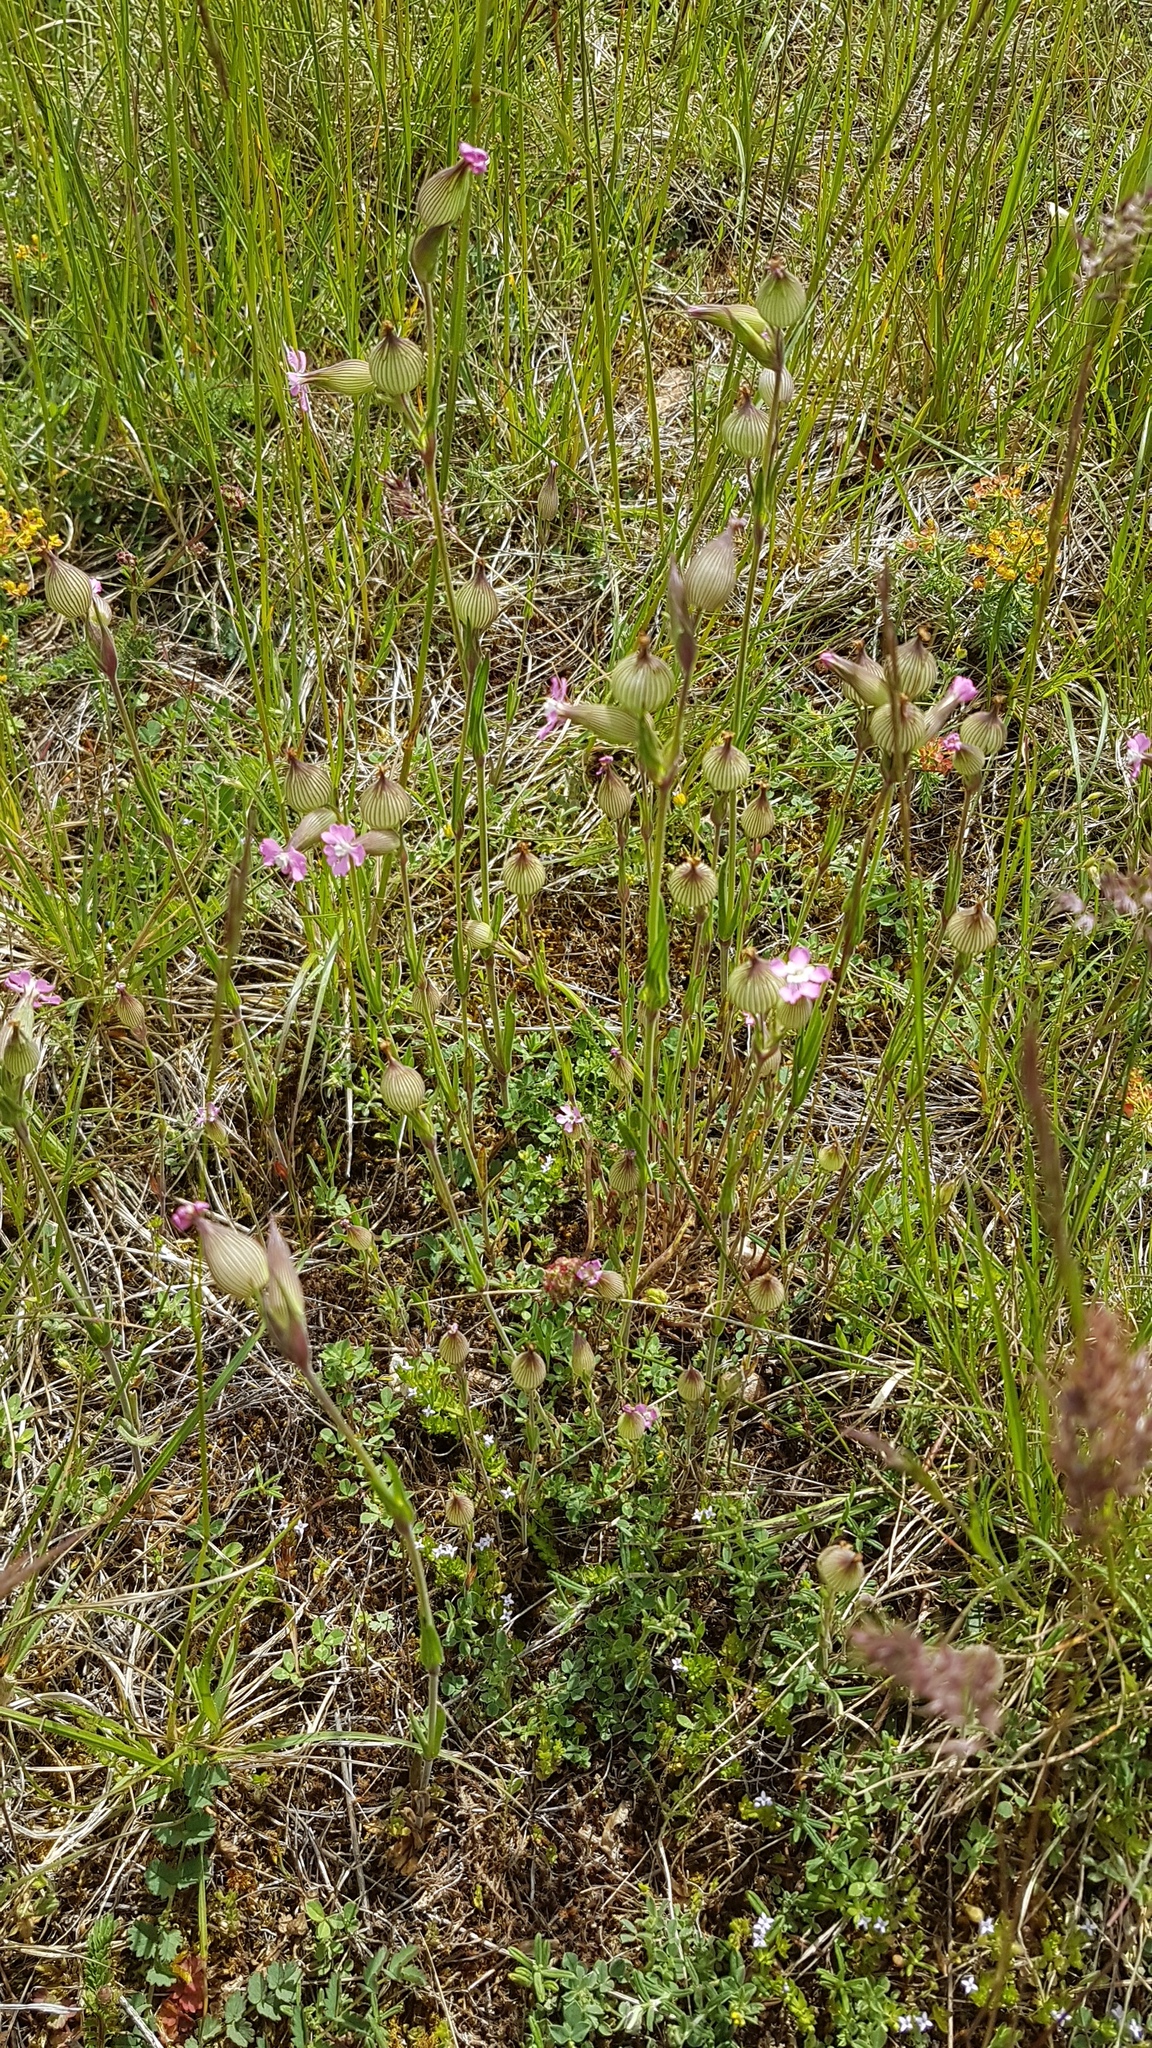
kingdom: Plantae
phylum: Tracheophyta
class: Magnoliopsida
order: Caryophyllales
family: Caryophyllaceae
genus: Silene
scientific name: Silene conica
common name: Sand catchfly
